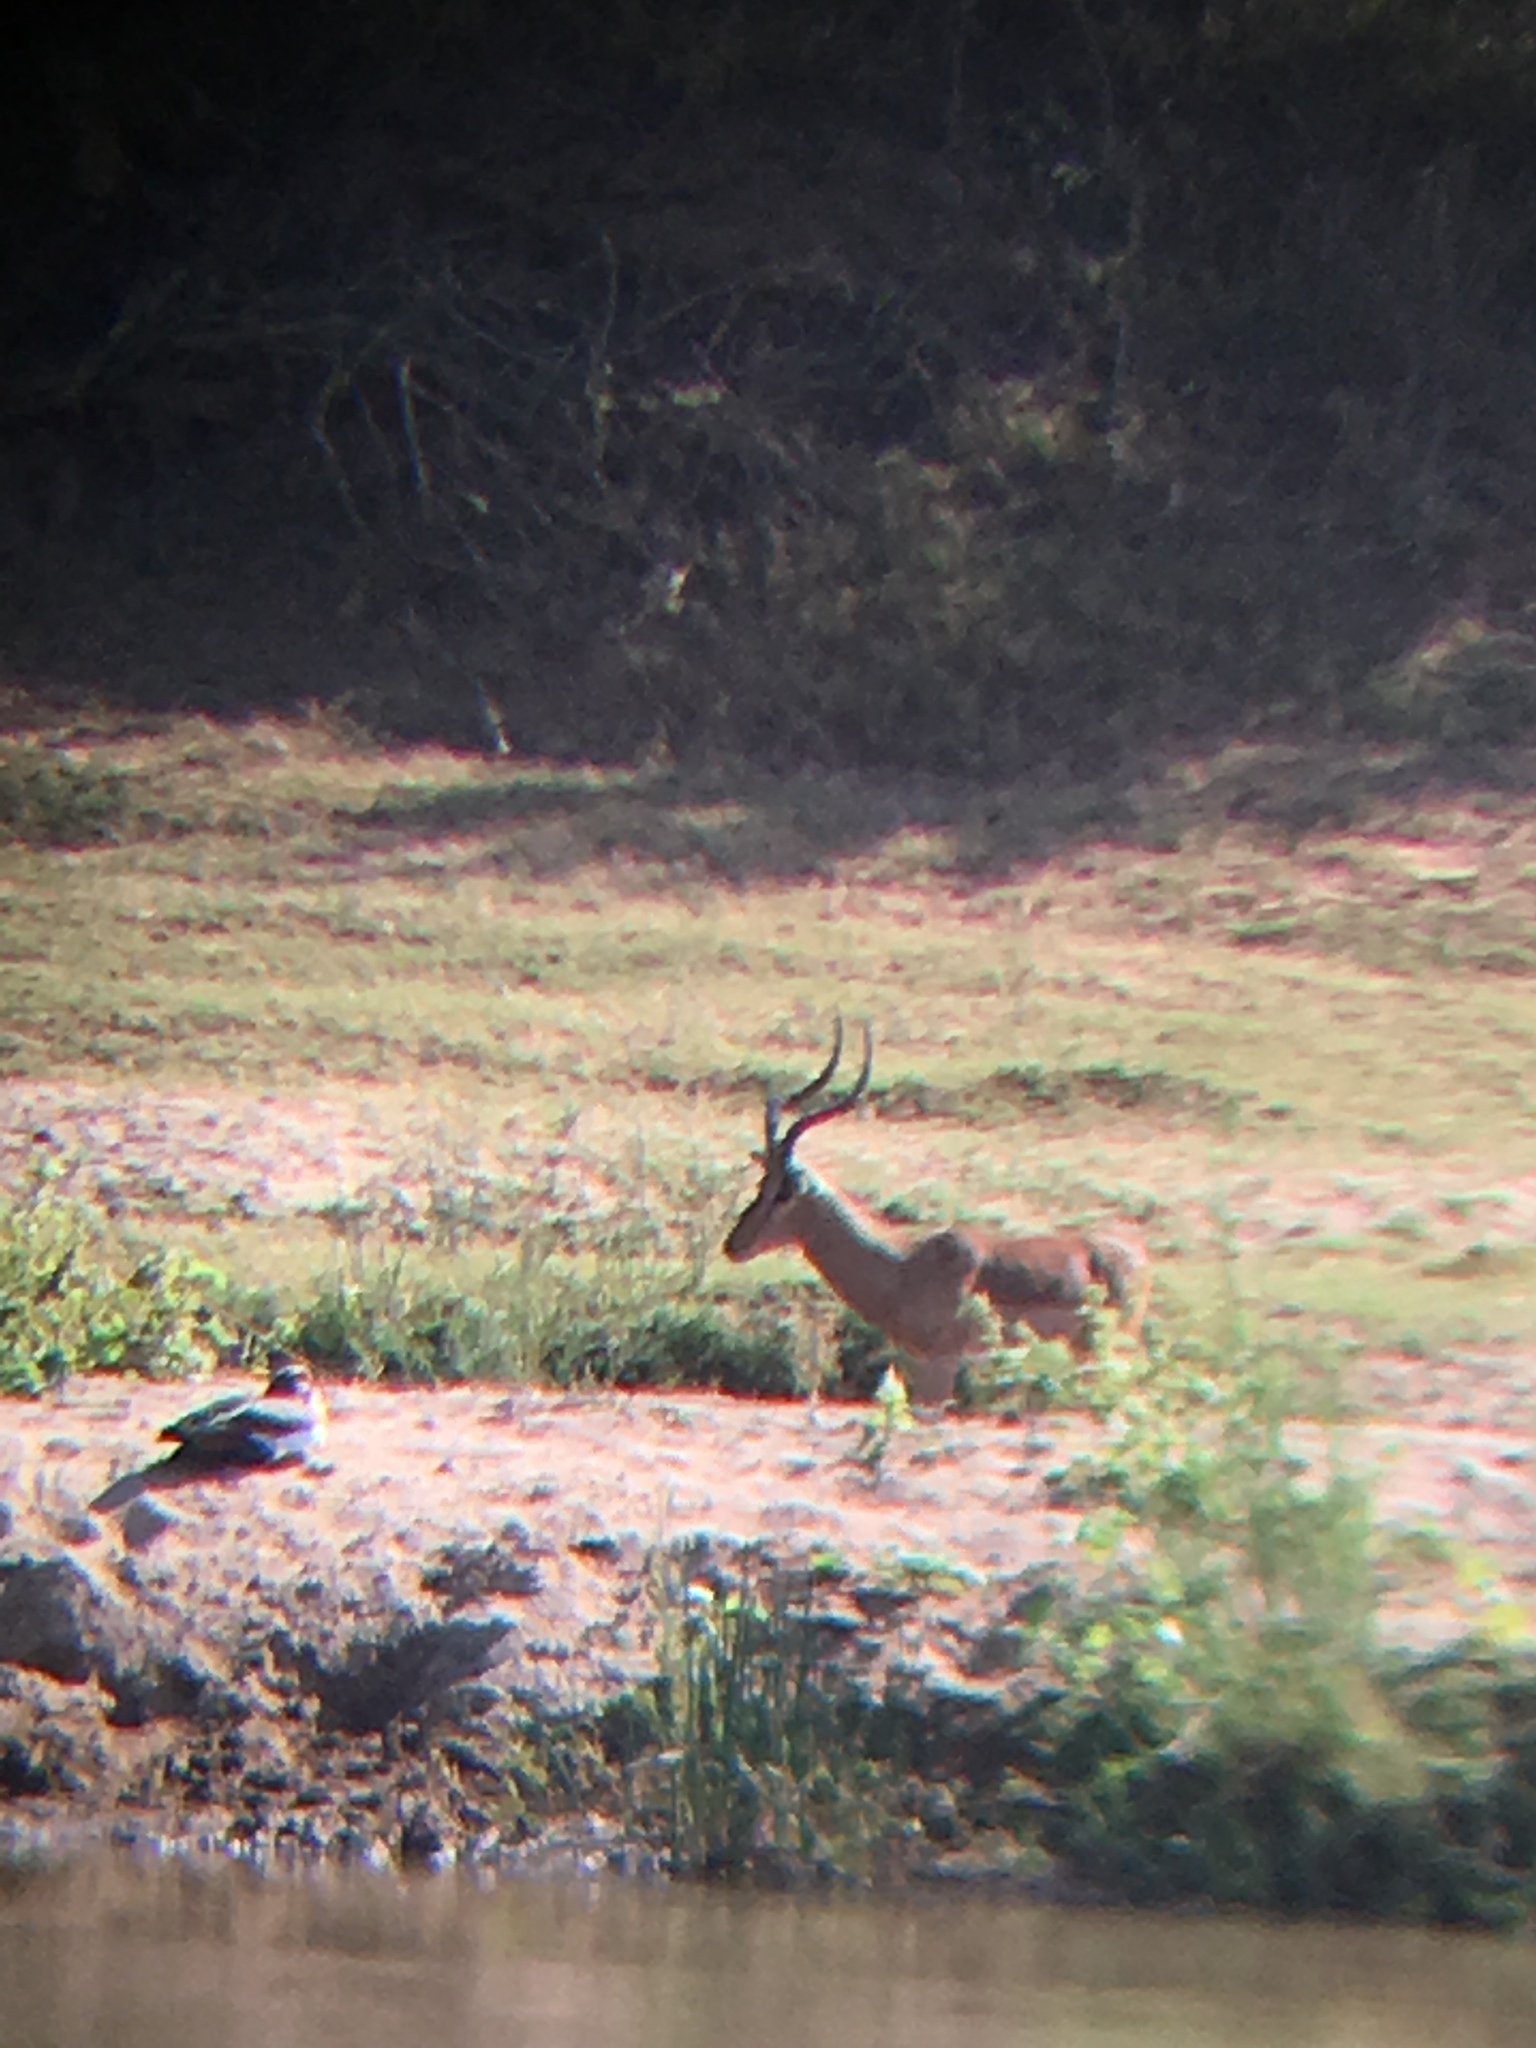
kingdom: Animalia
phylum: Chordata
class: Mammalia
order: Artiodactyla
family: Bovidae
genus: Aepyceros
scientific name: Aepyceros melampus
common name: Impala
